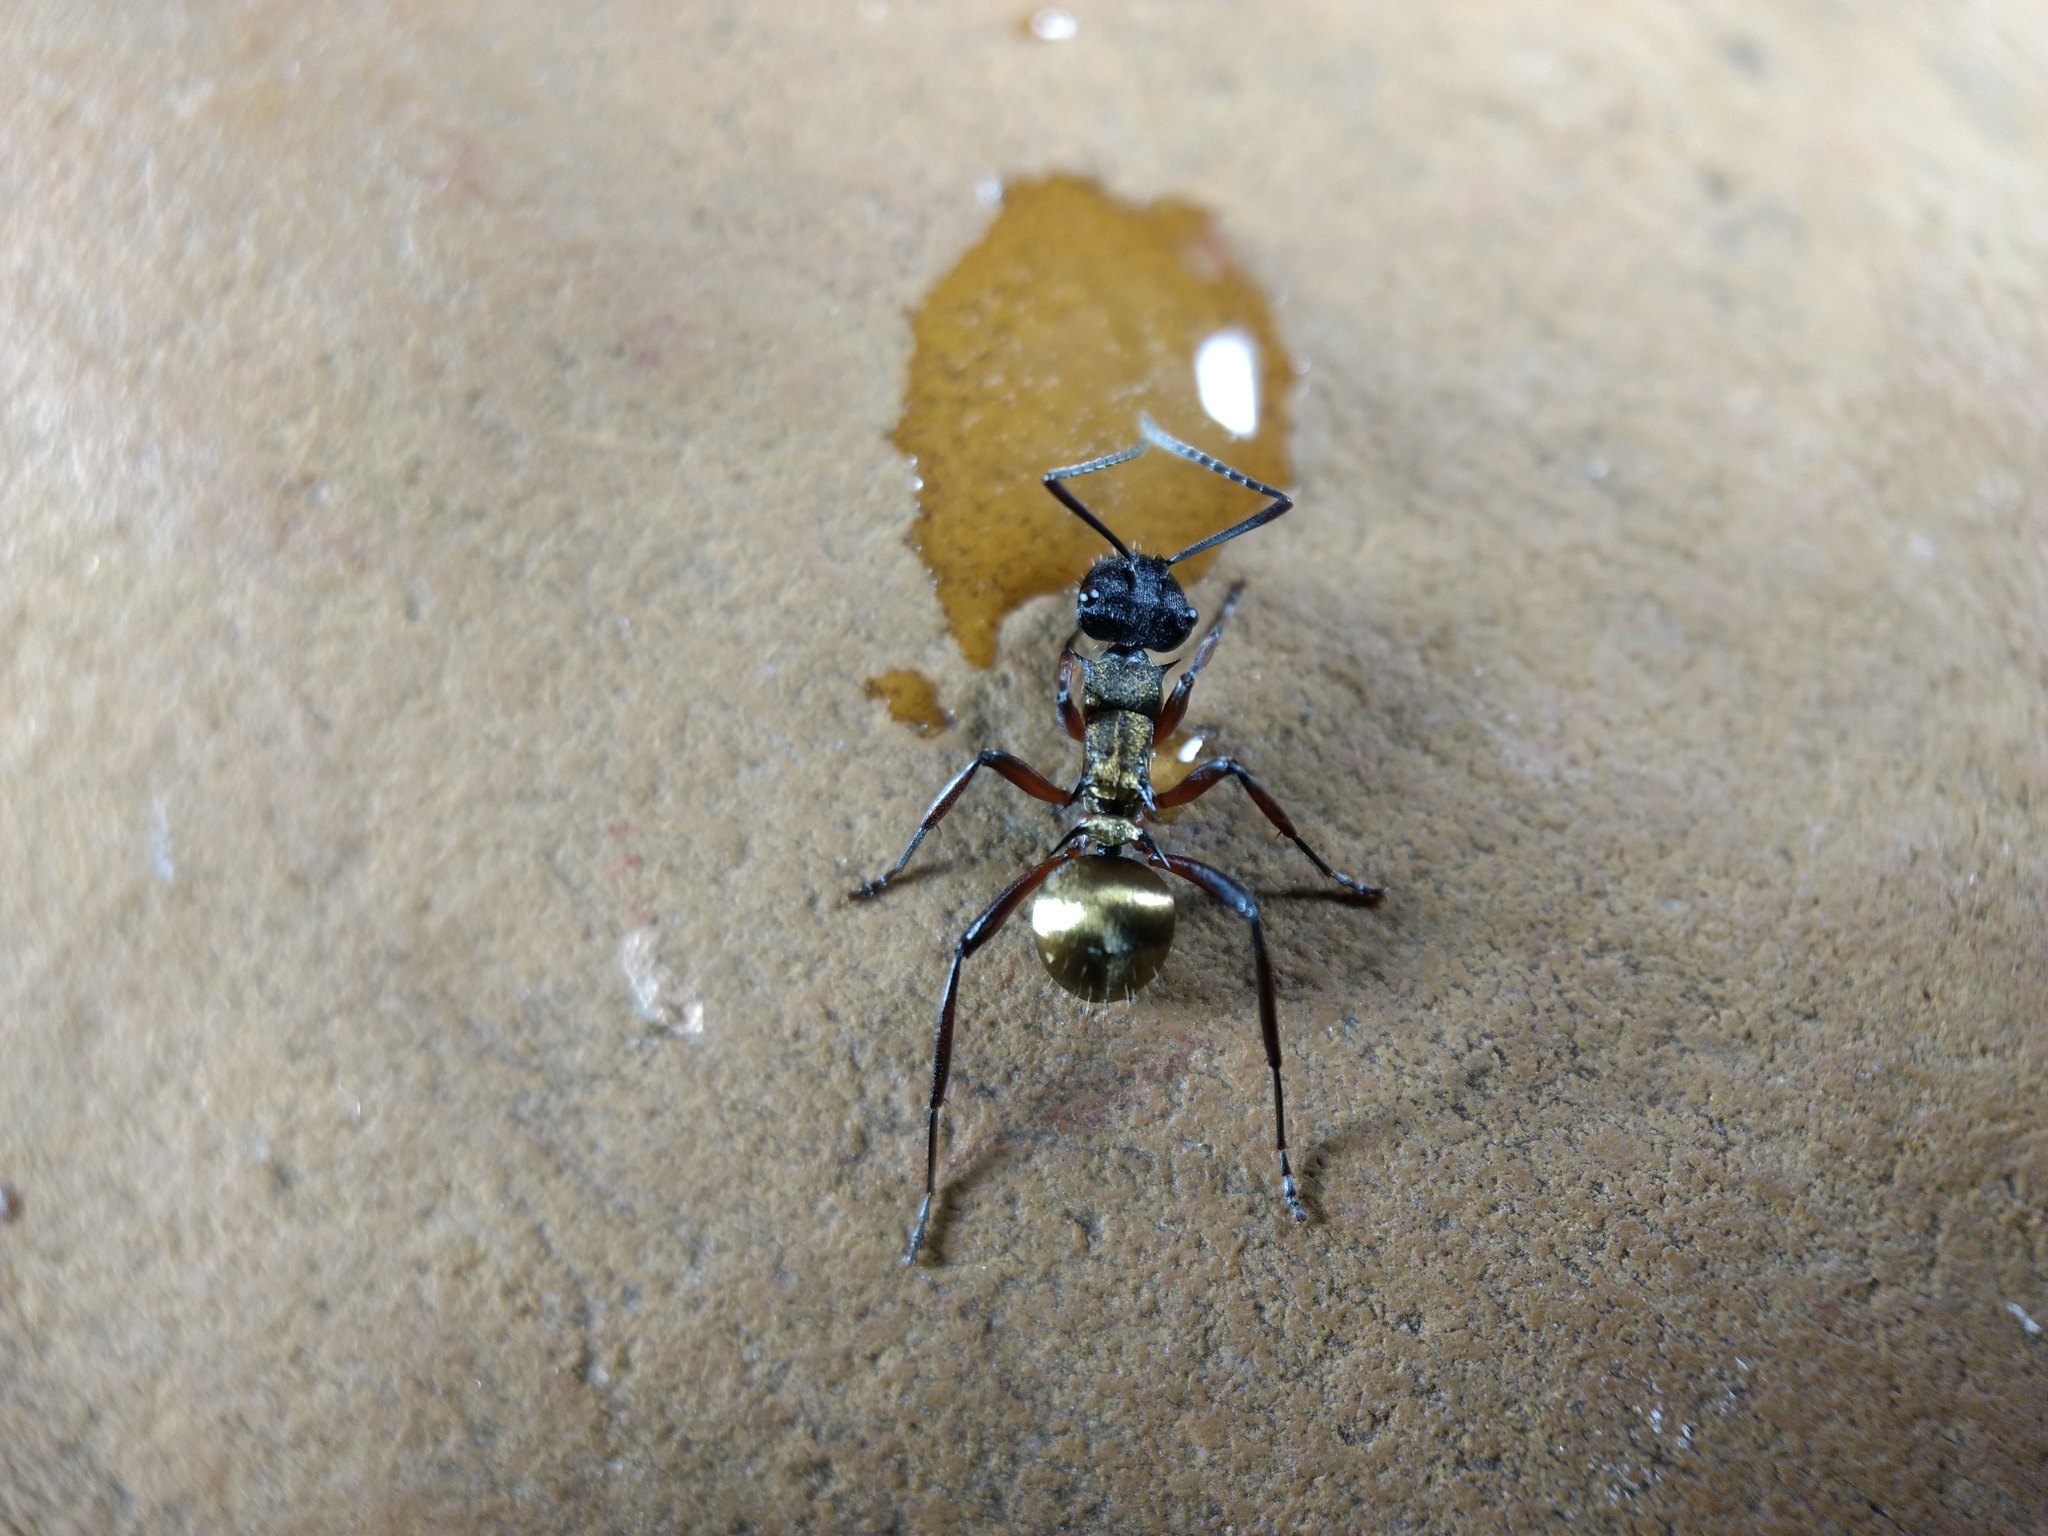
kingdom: Animalia
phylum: Arthropoda
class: Insecta
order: Hymenoptera
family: Formicidae
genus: Polyrhachis
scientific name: Polyrhachis rufifemur
